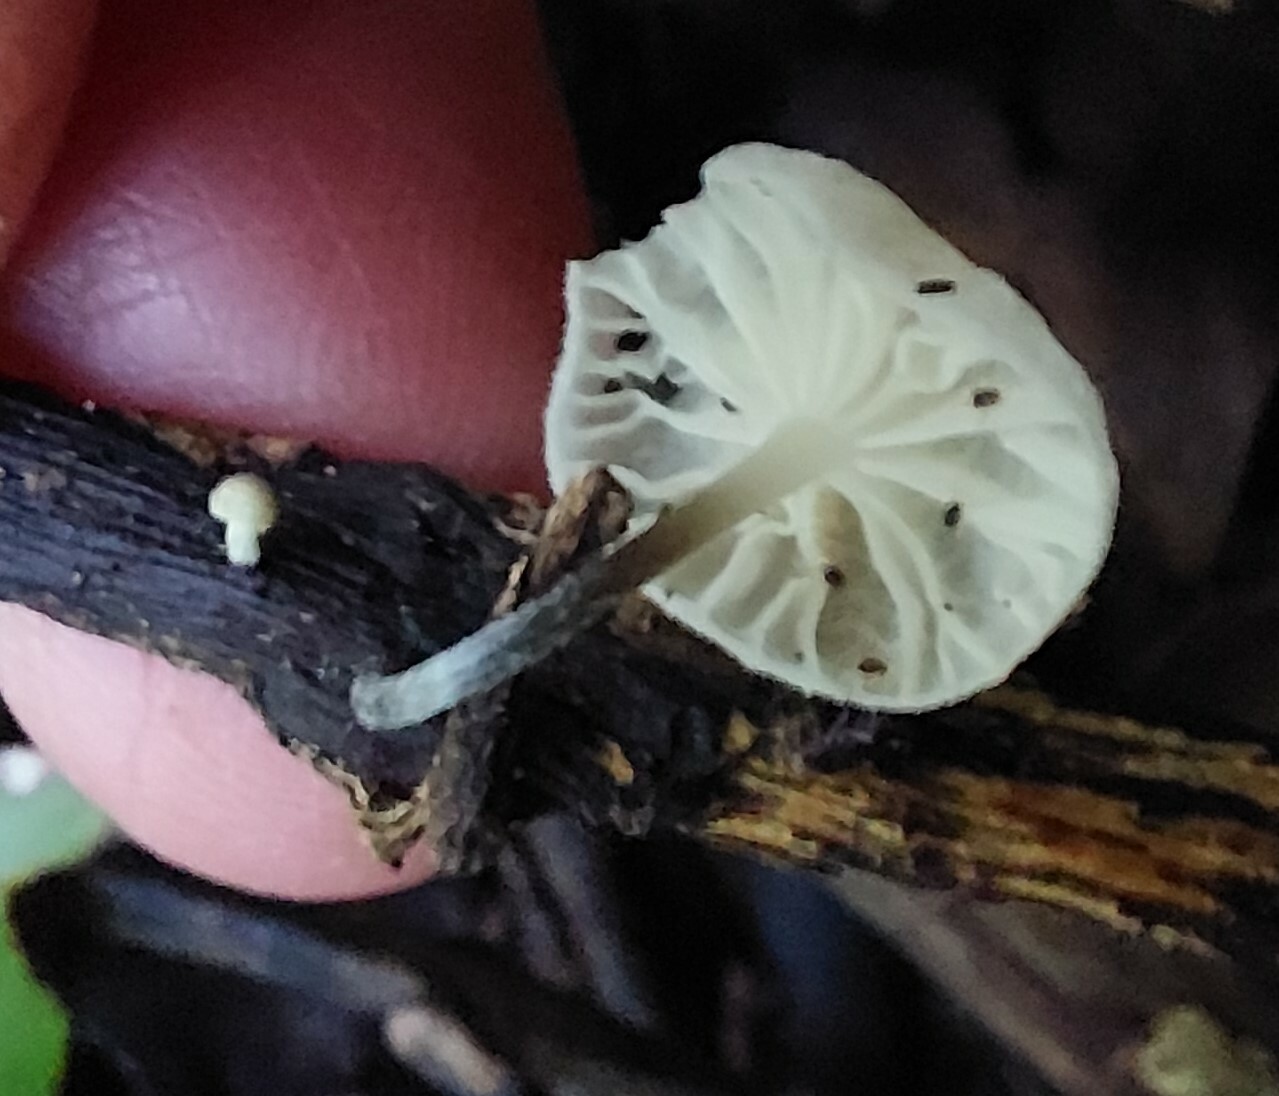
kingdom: Fungi
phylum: Basidiomycota
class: Agaricomycetes
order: Agaricales
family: Porotheleaceae
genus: Porotheleum
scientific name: Porotheleum albodescendens
